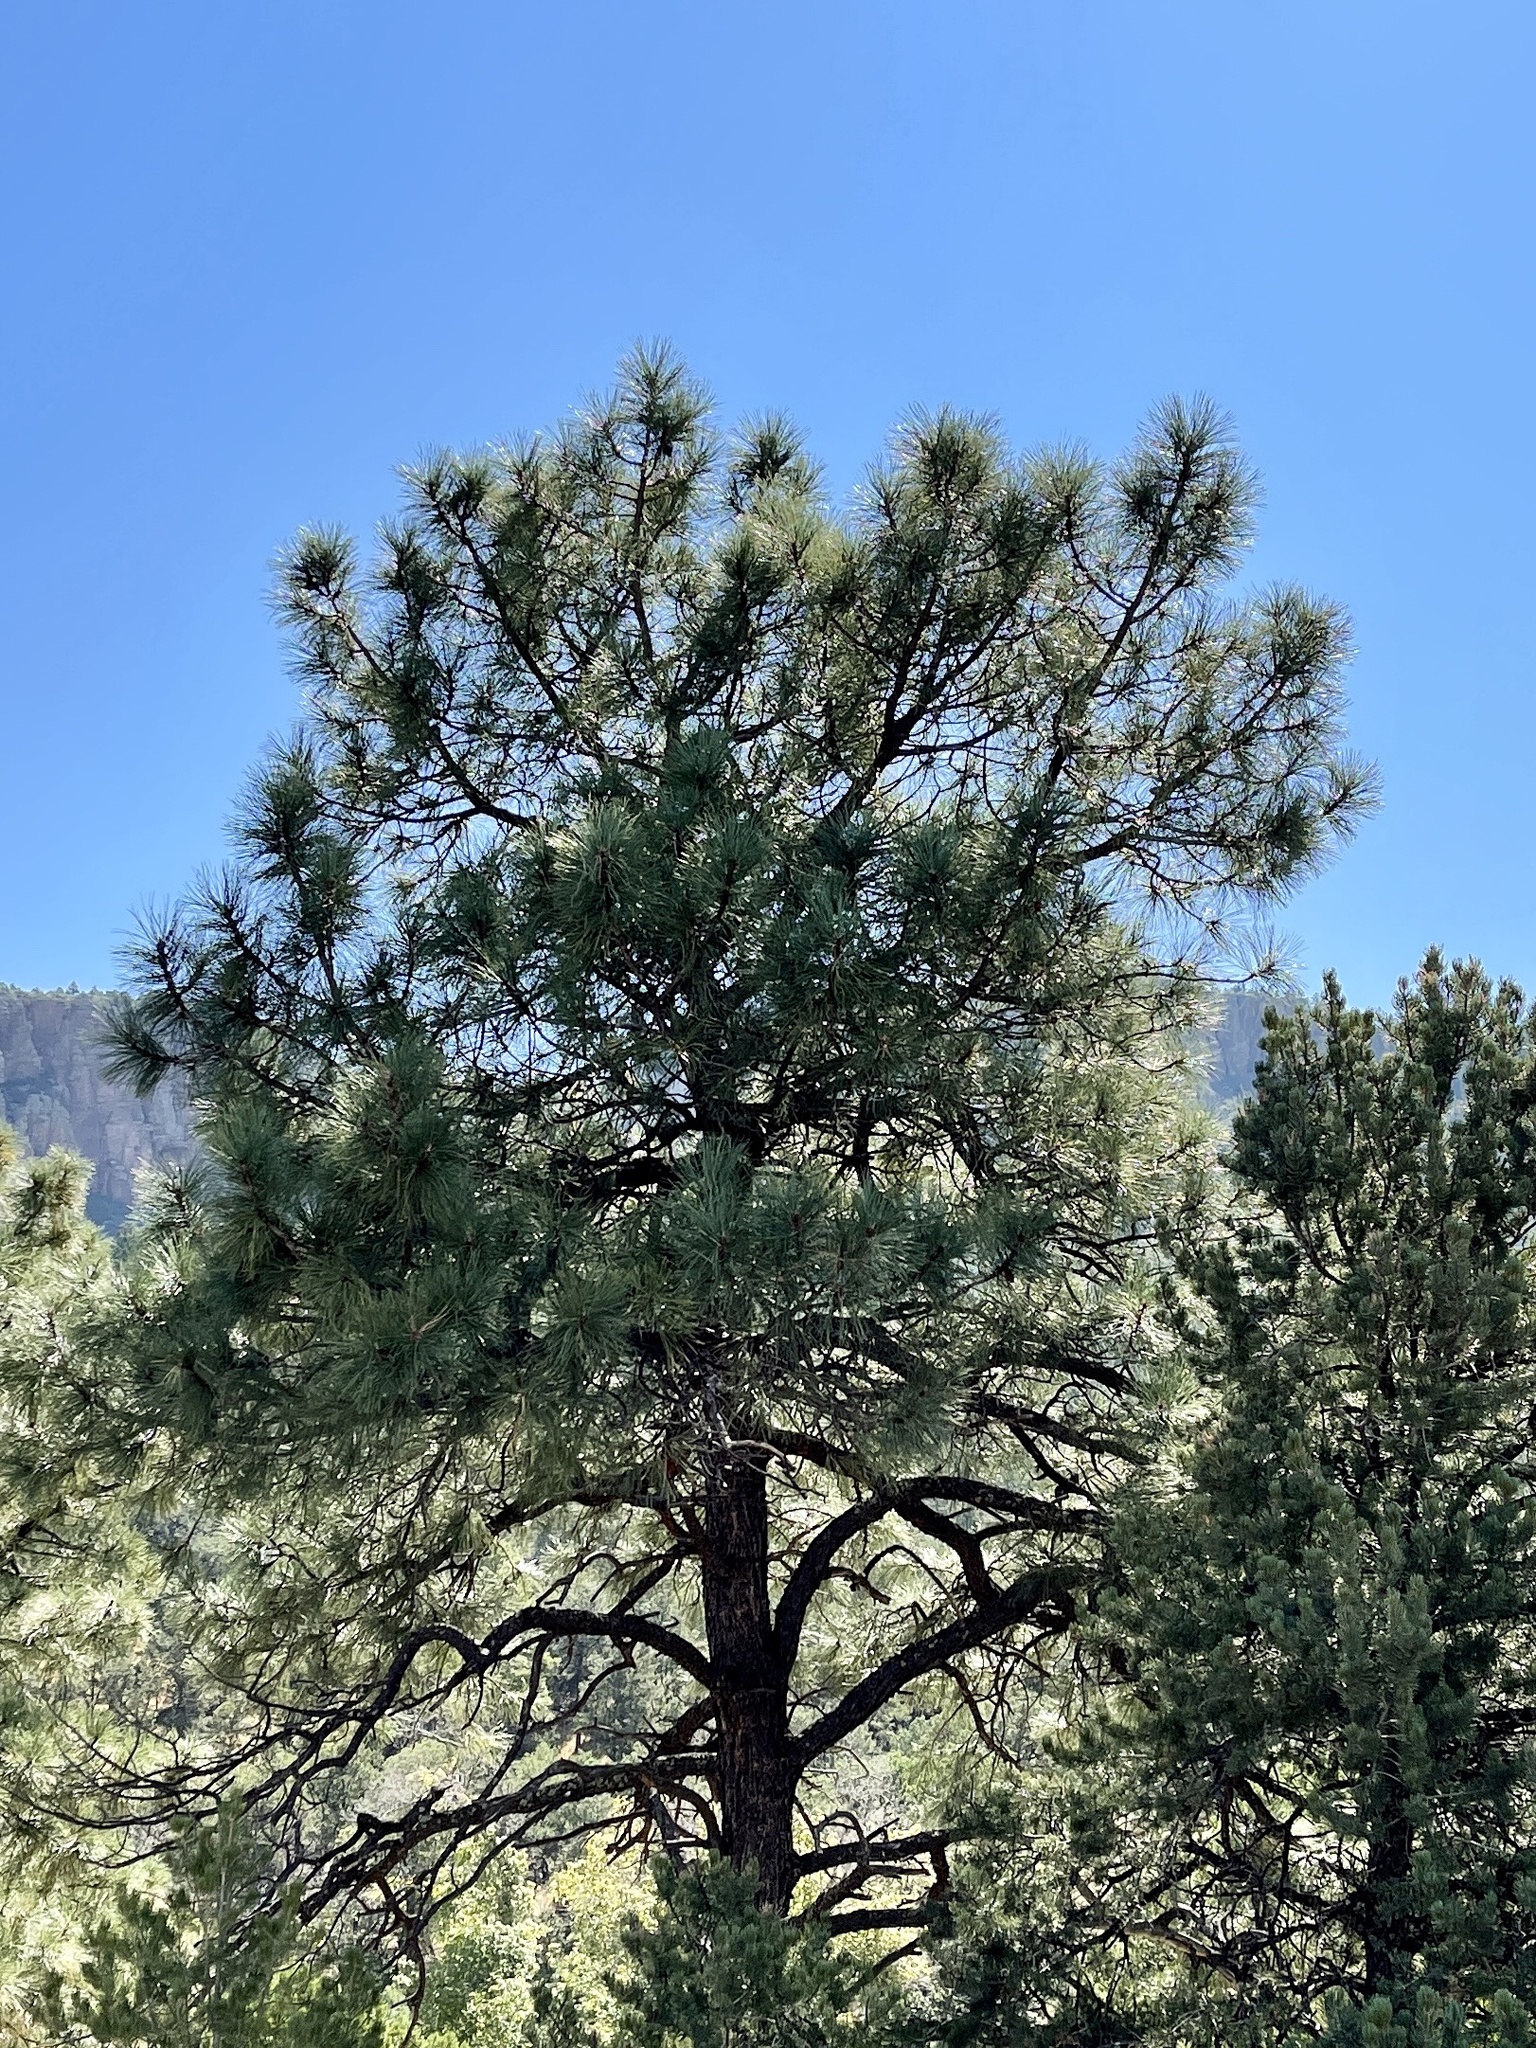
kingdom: Plantae
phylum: Tracheophyta
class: Pinopsida
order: Pinales
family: Pinaceae
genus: Pinus
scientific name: Pinus ponderosa
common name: Western yellow-pine
